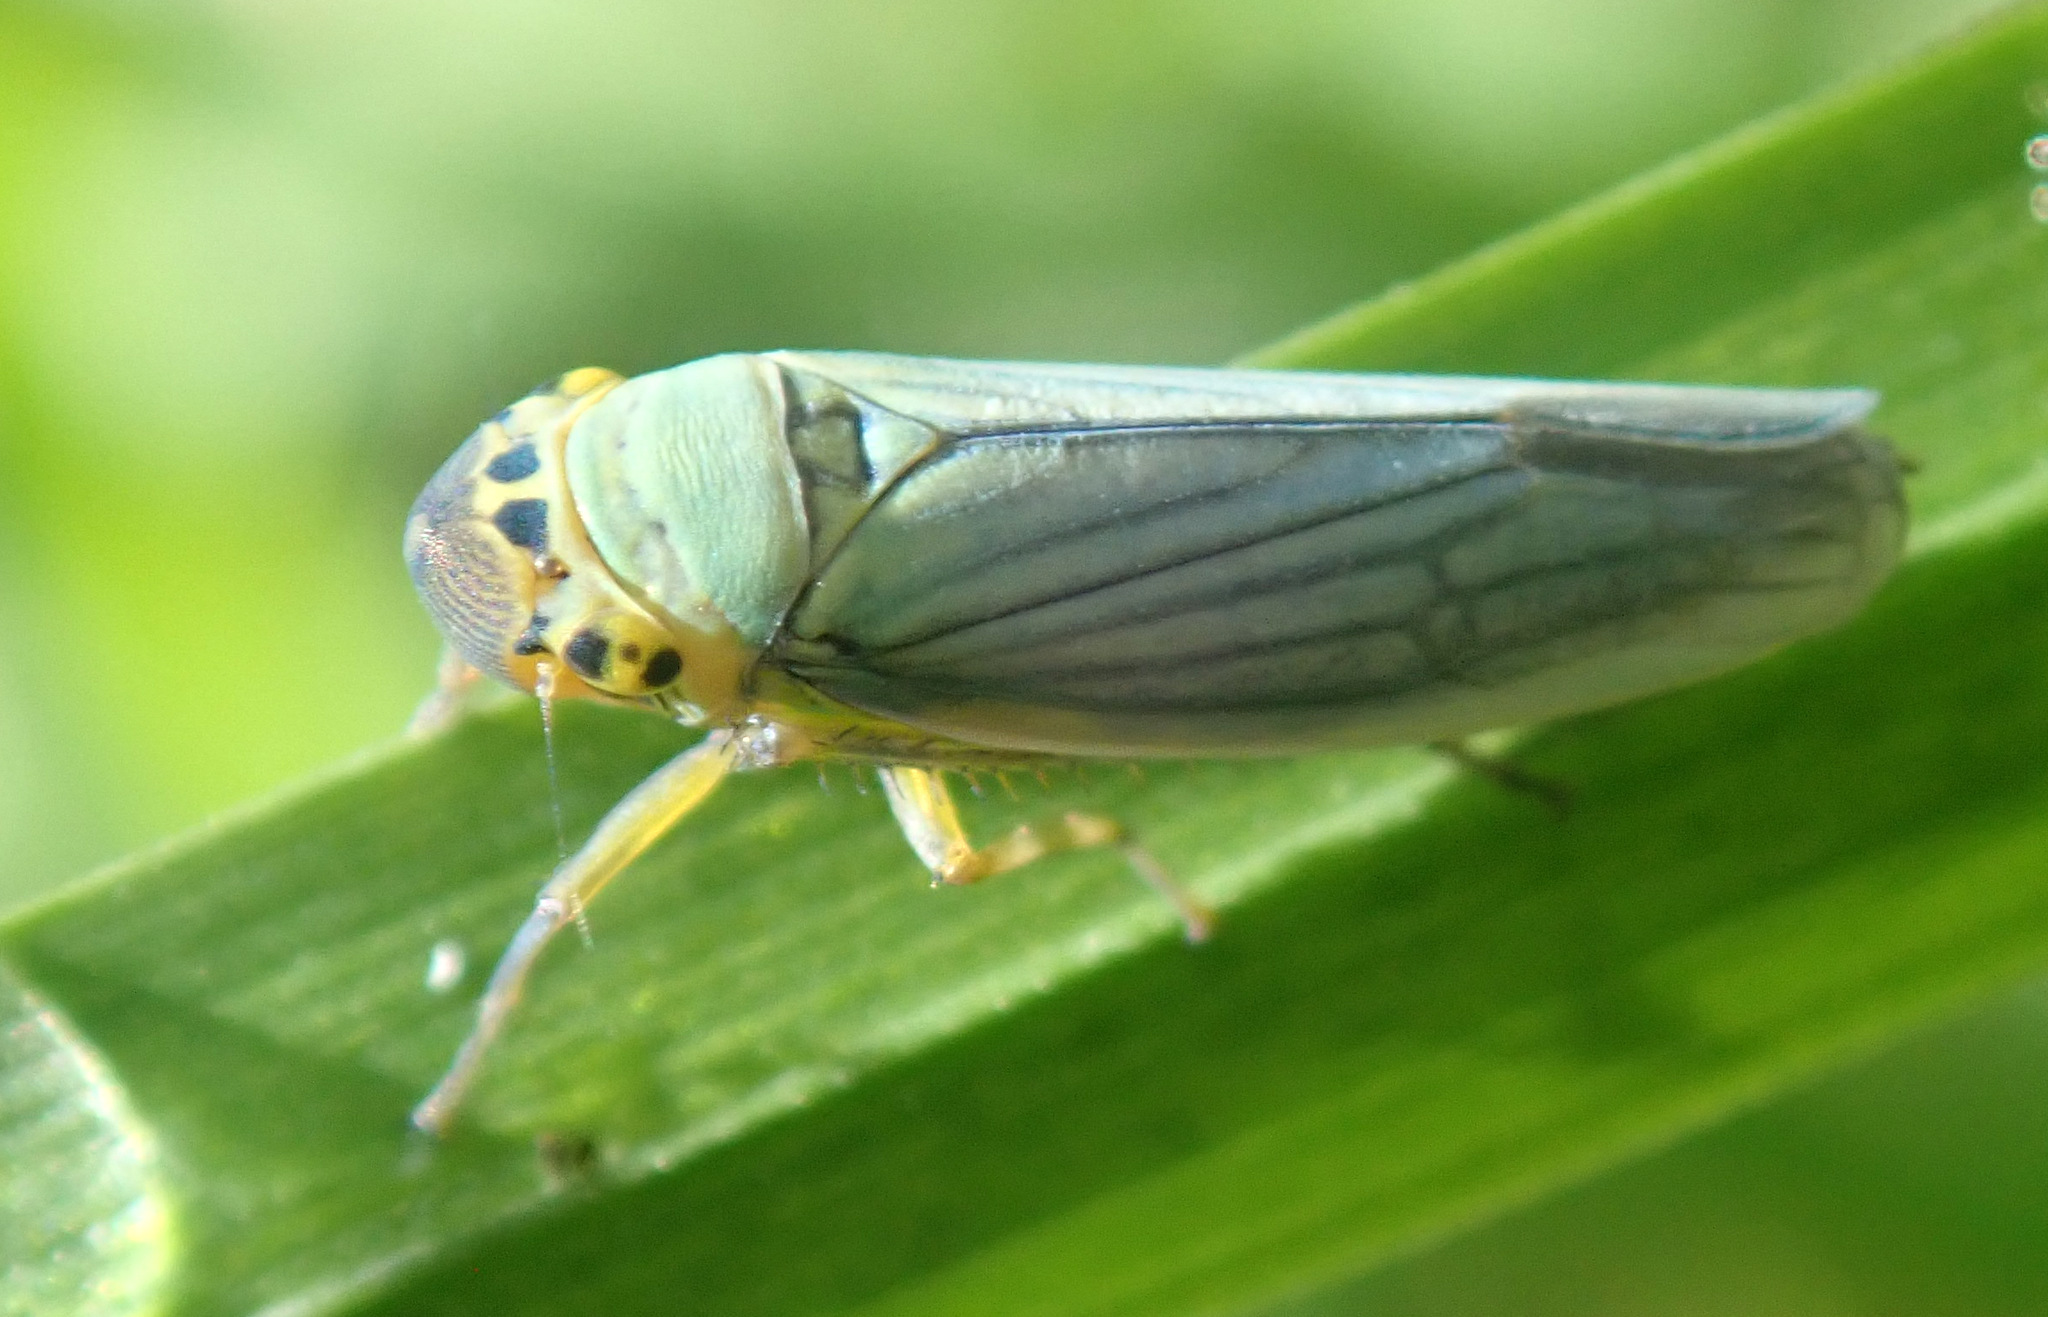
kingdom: Animalia
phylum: Arthropoda
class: Insecta
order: Hemiptera
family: Cicadellidae
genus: Cicadella
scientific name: Cicadella viridis
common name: Leafhopper
